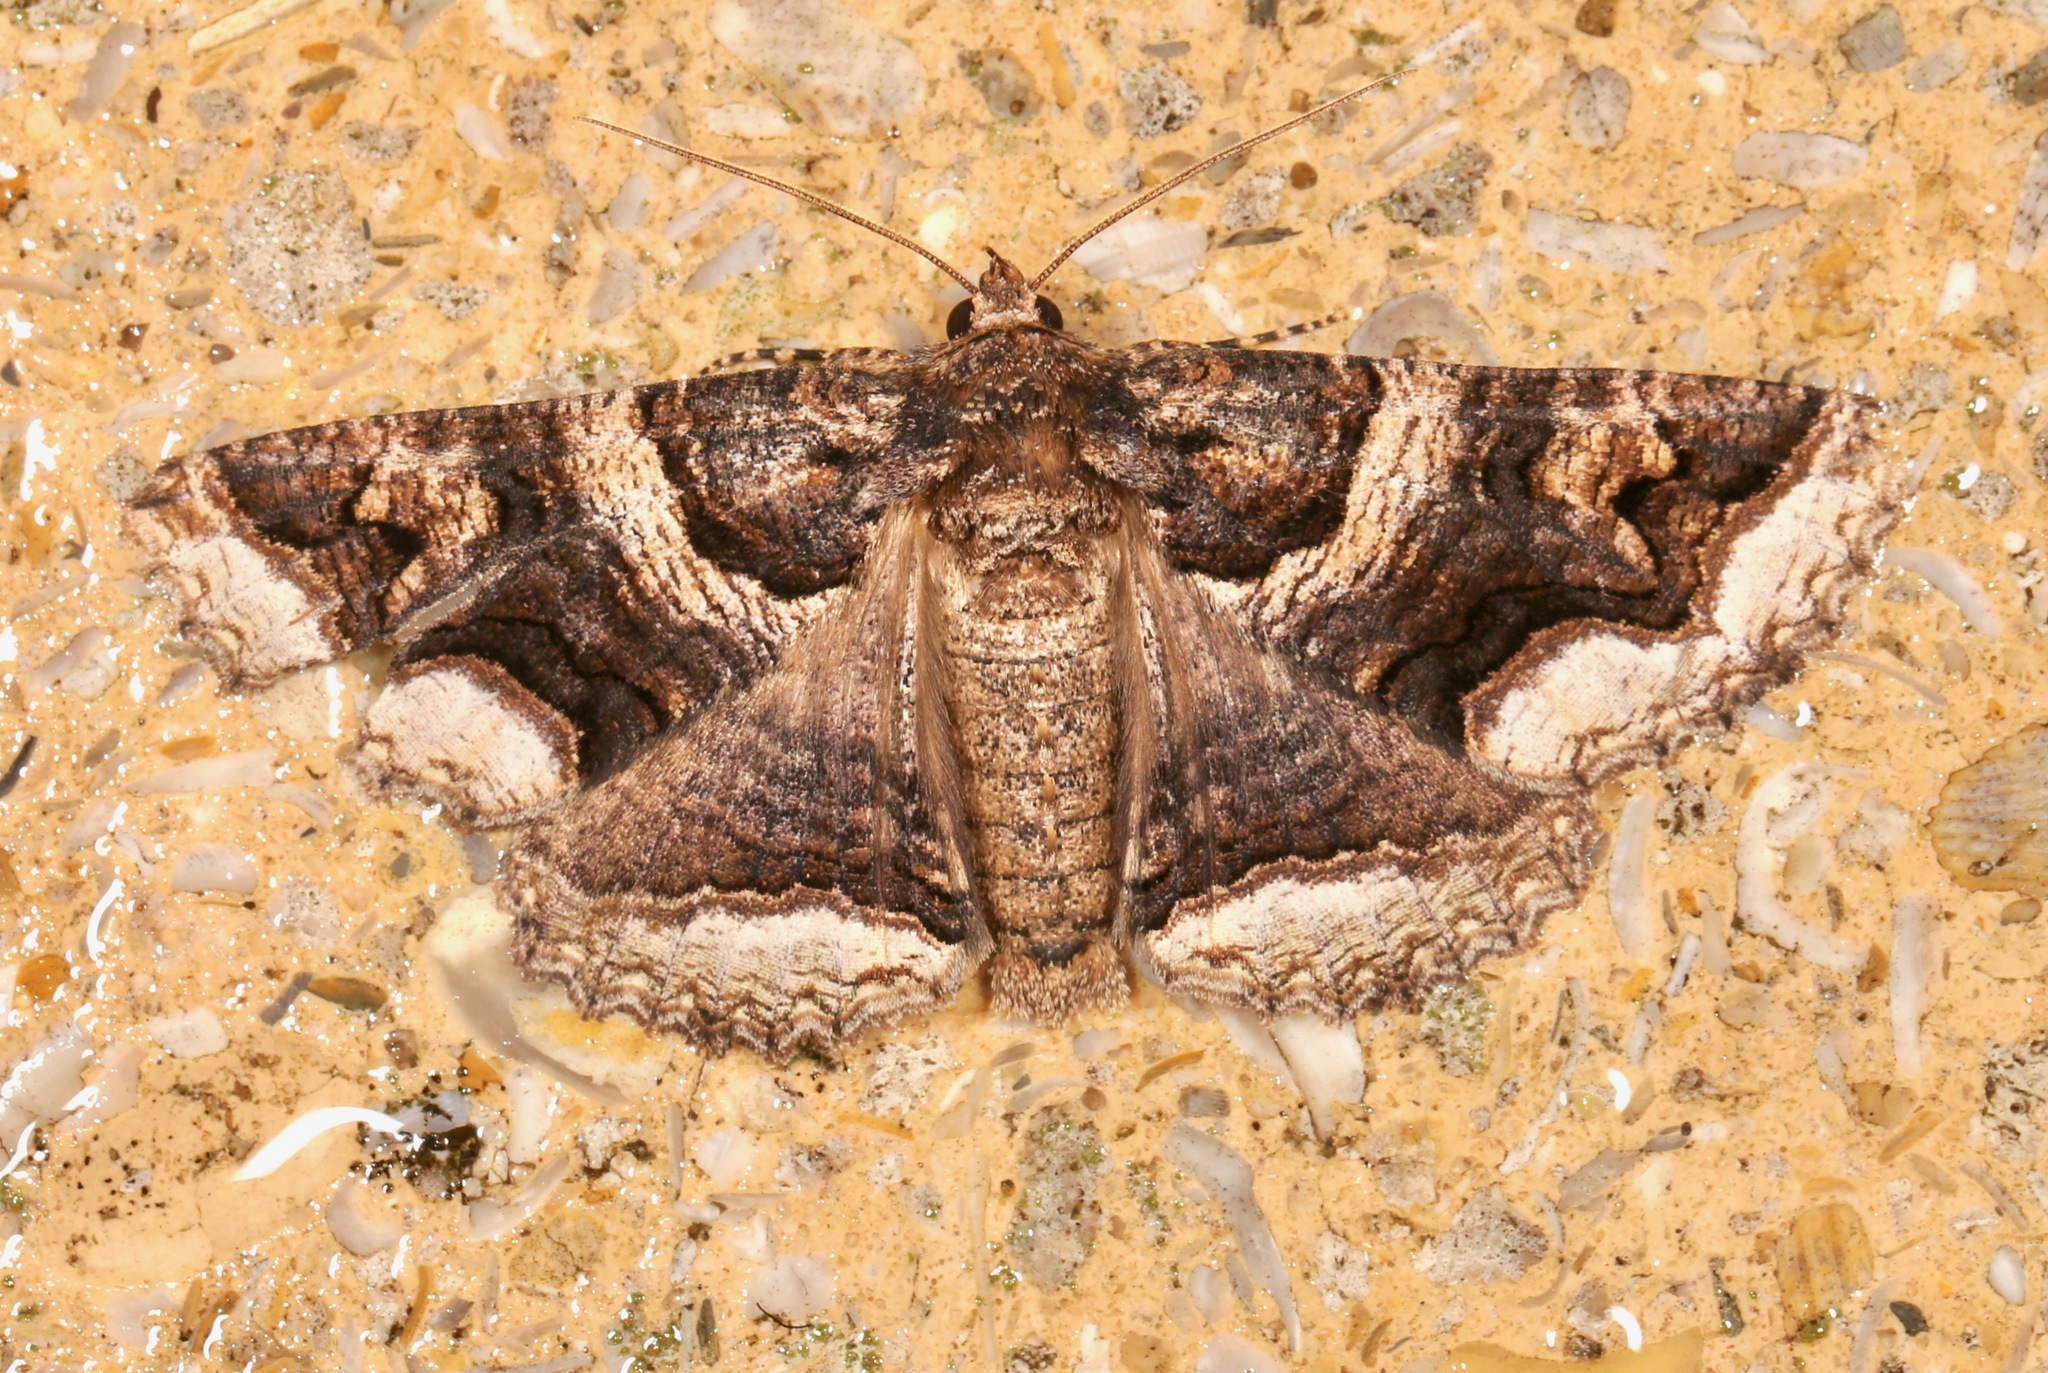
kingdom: Animalia
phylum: Arthropoda
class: Insecta
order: Lepidoptera
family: Erebidae
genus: Zale
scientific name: Zale calycanthata
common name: Double-banded zale
